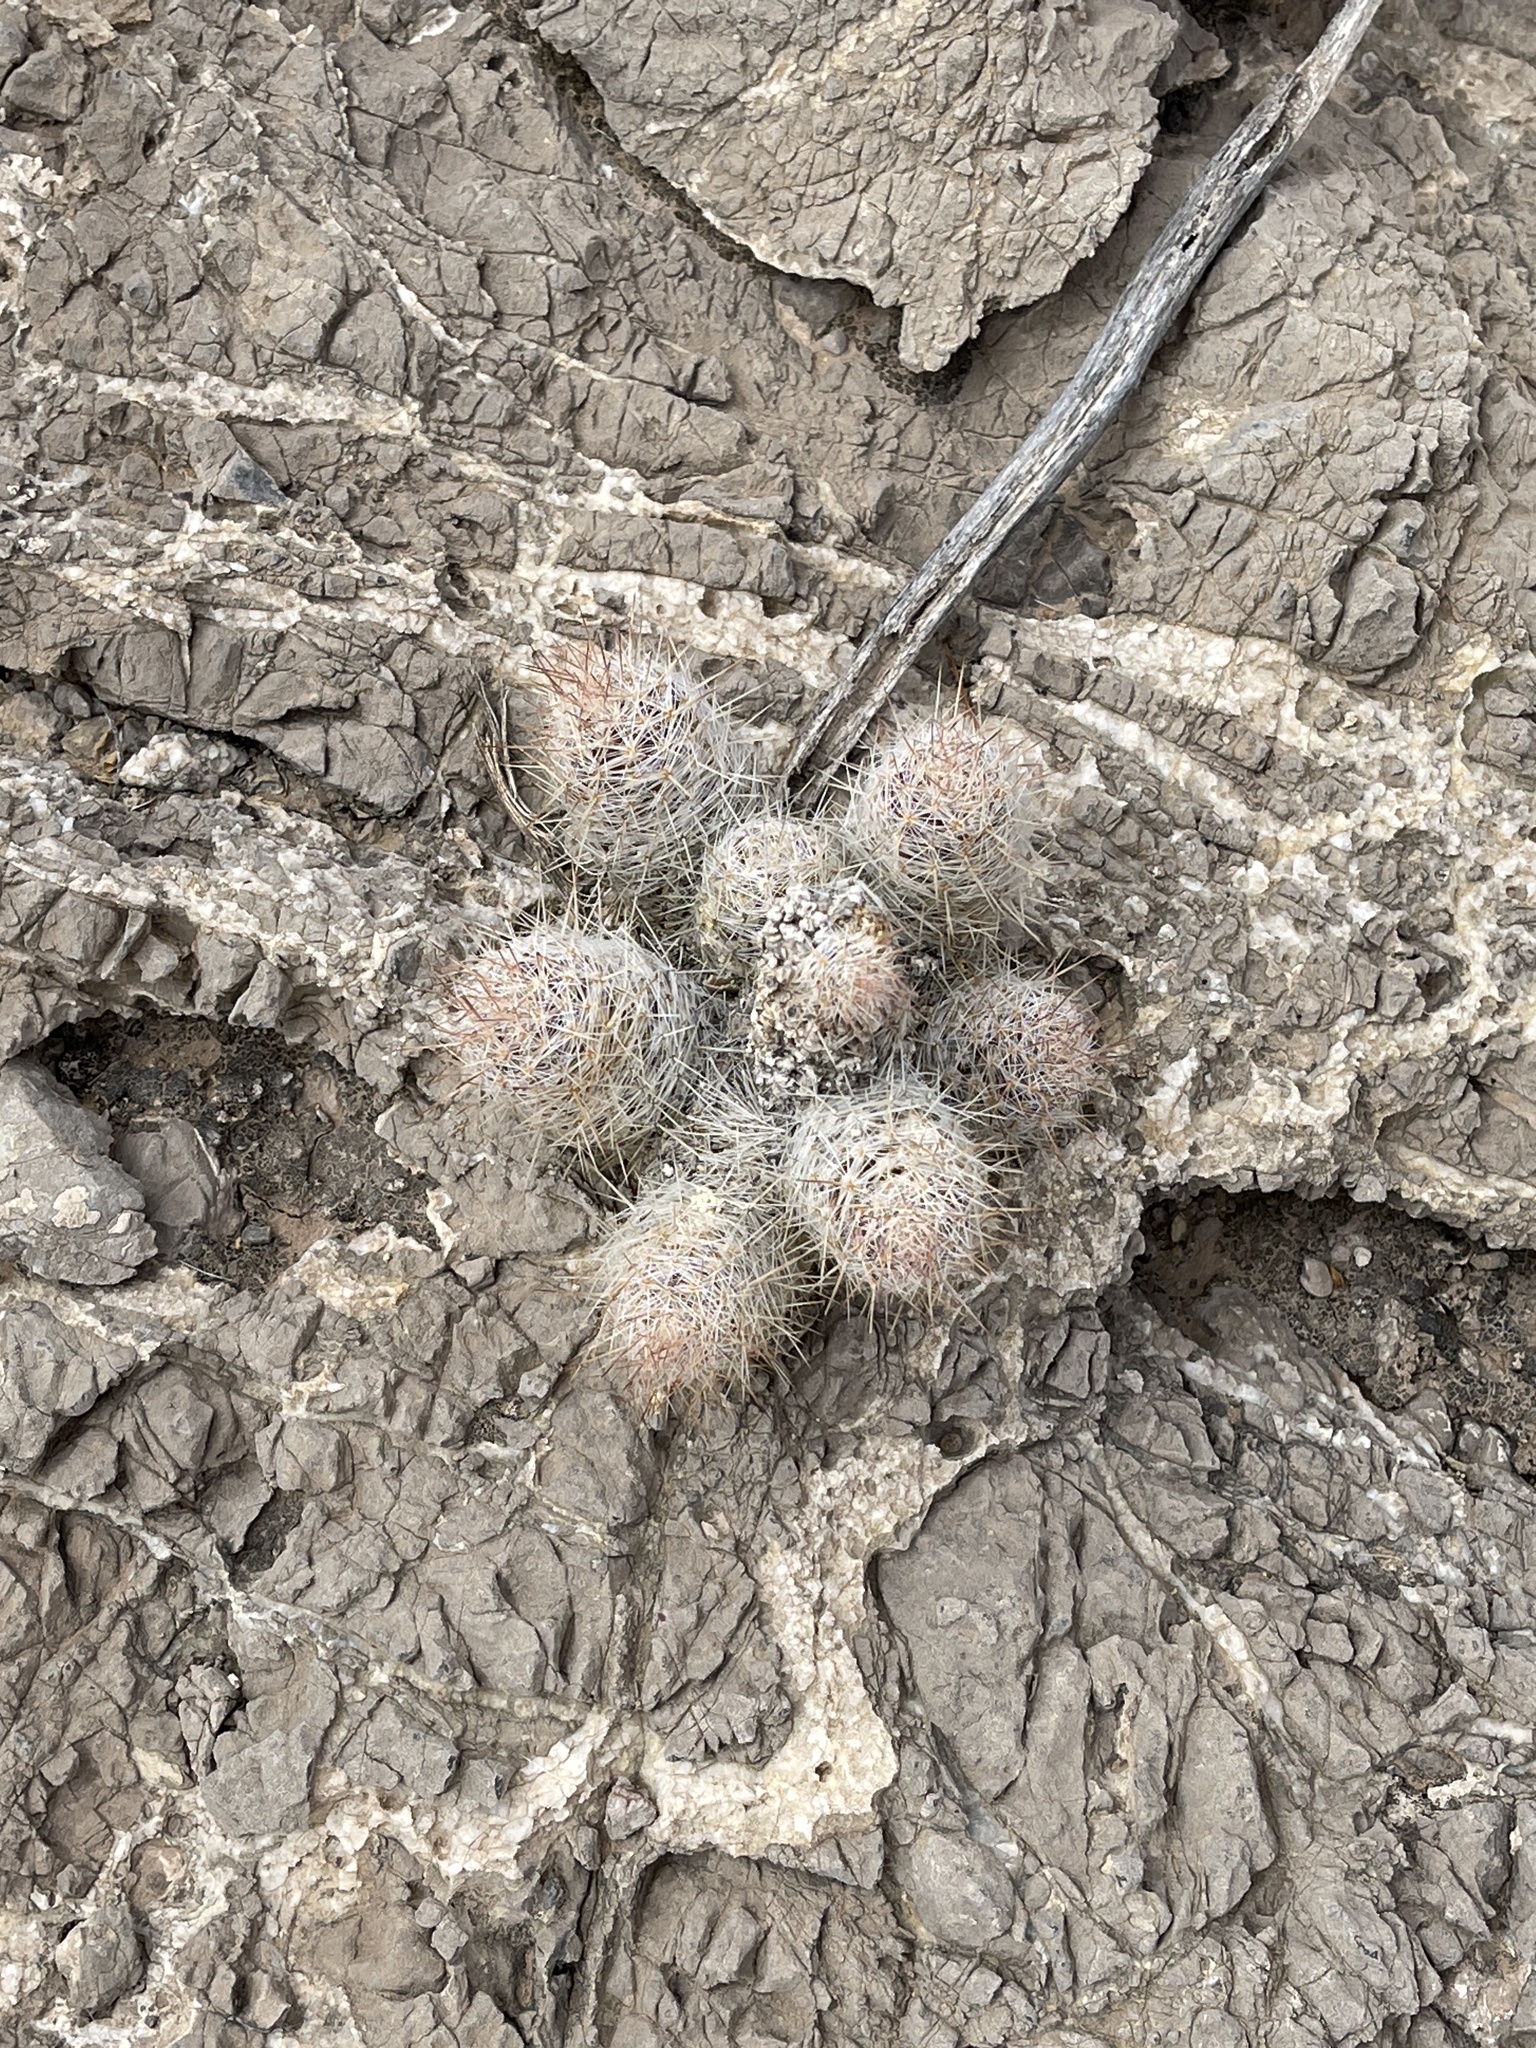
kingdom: Plantae
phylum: Tracheophyta
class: Magnoliopsida
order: Caryophyllales
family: Cactaceae
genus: Pelecyphora
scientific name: Pelecyphora tuberculosa
